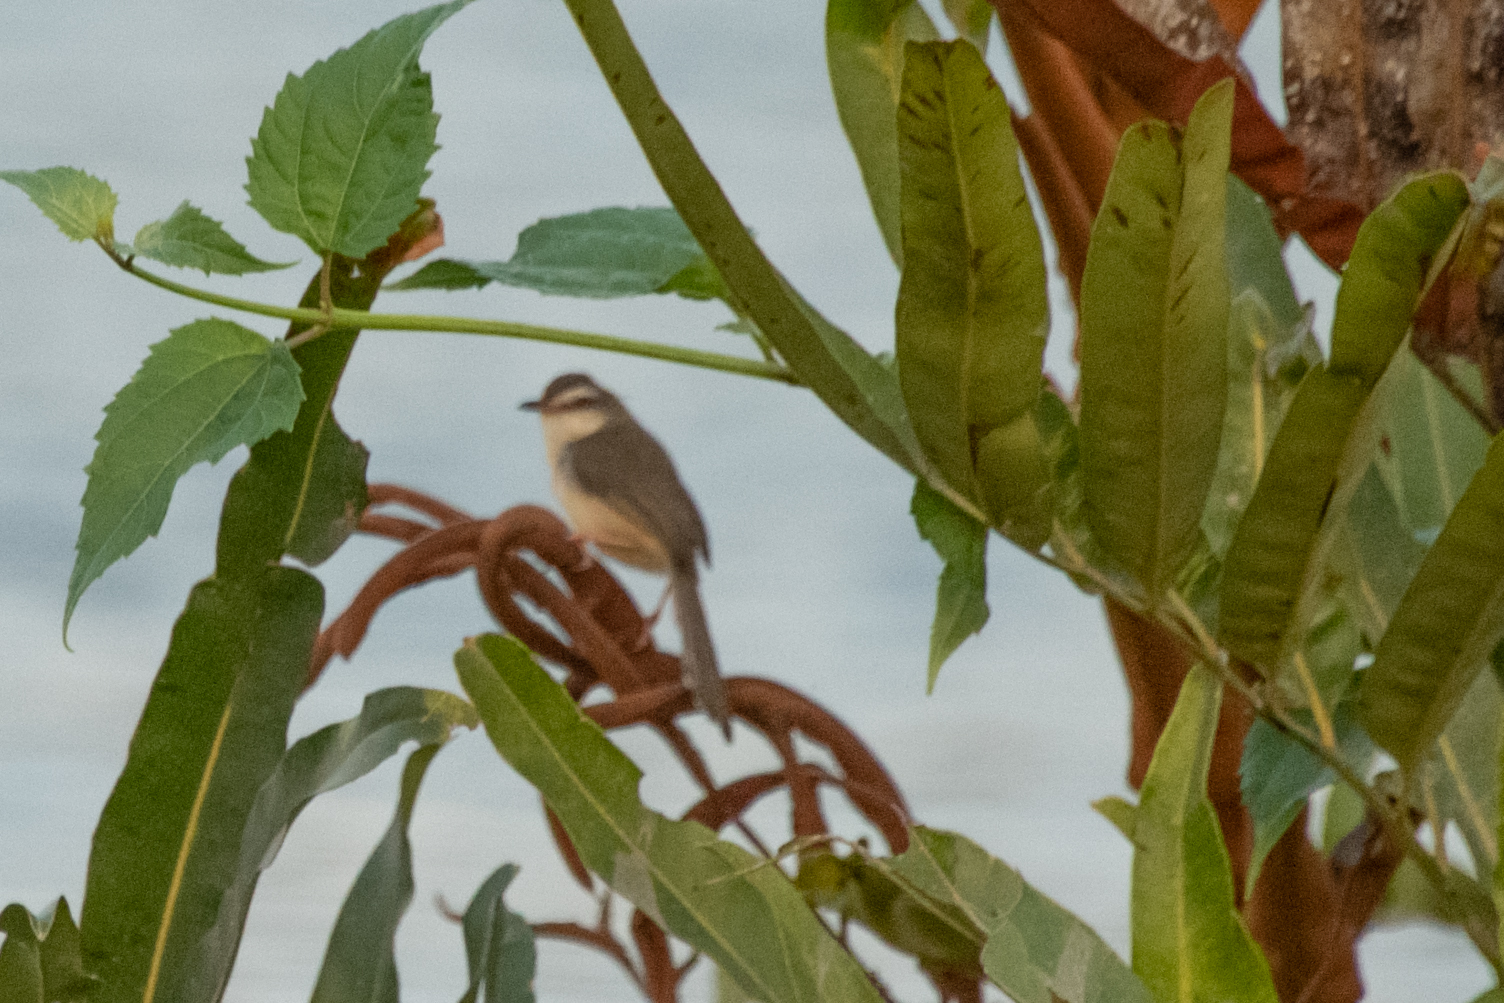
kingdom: Animalia
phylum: Chordata
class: Aves
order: Passeriformes
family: Cisticolidae
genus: Prinia
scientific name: Prinia inornata
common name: Plain prinia
